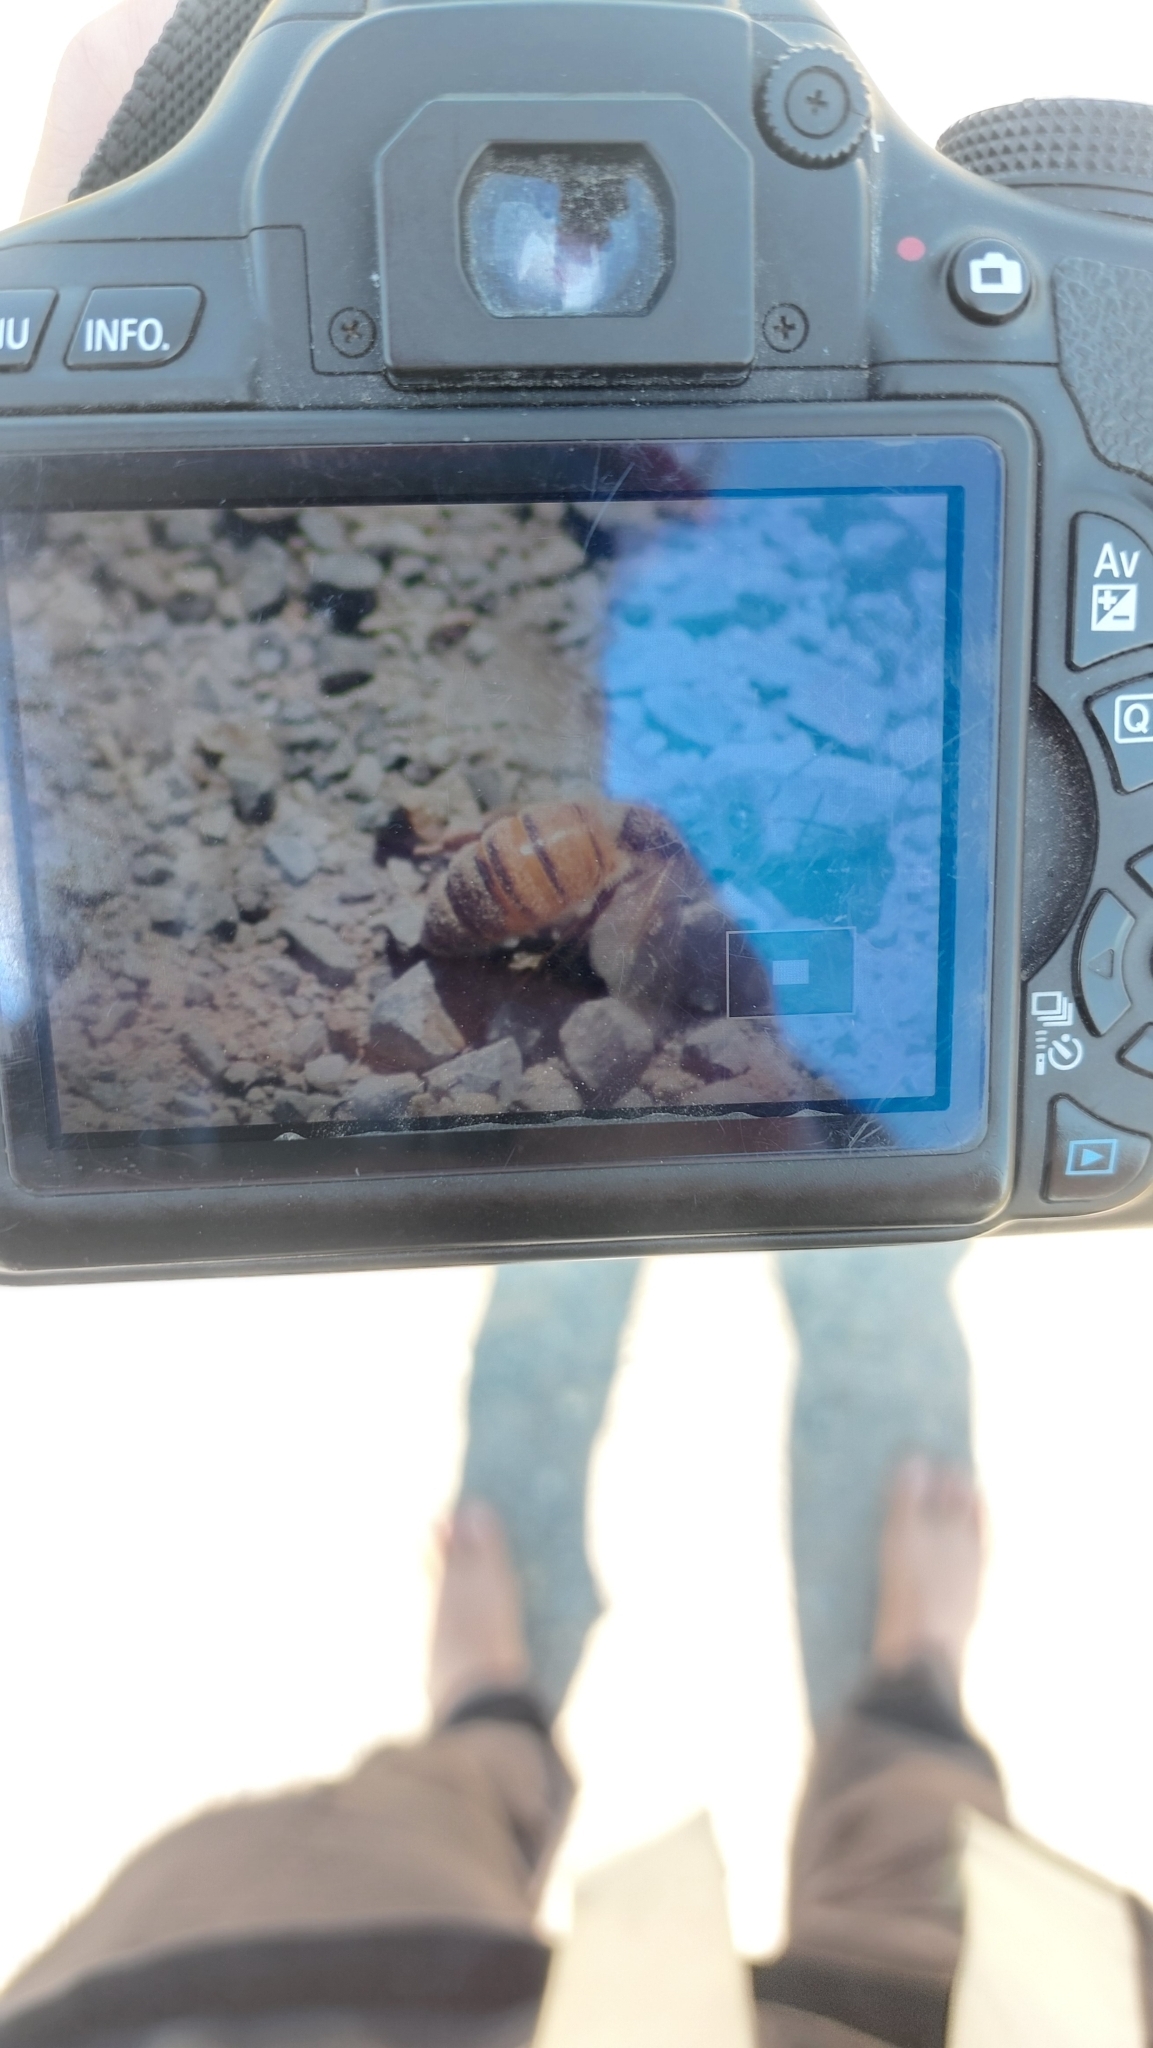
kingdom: Animalia
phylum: Arthropoda
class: Insecta
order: Hymenoptera
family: Apidae
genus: Apis
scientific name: Apis mellifera
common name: Honey bee
